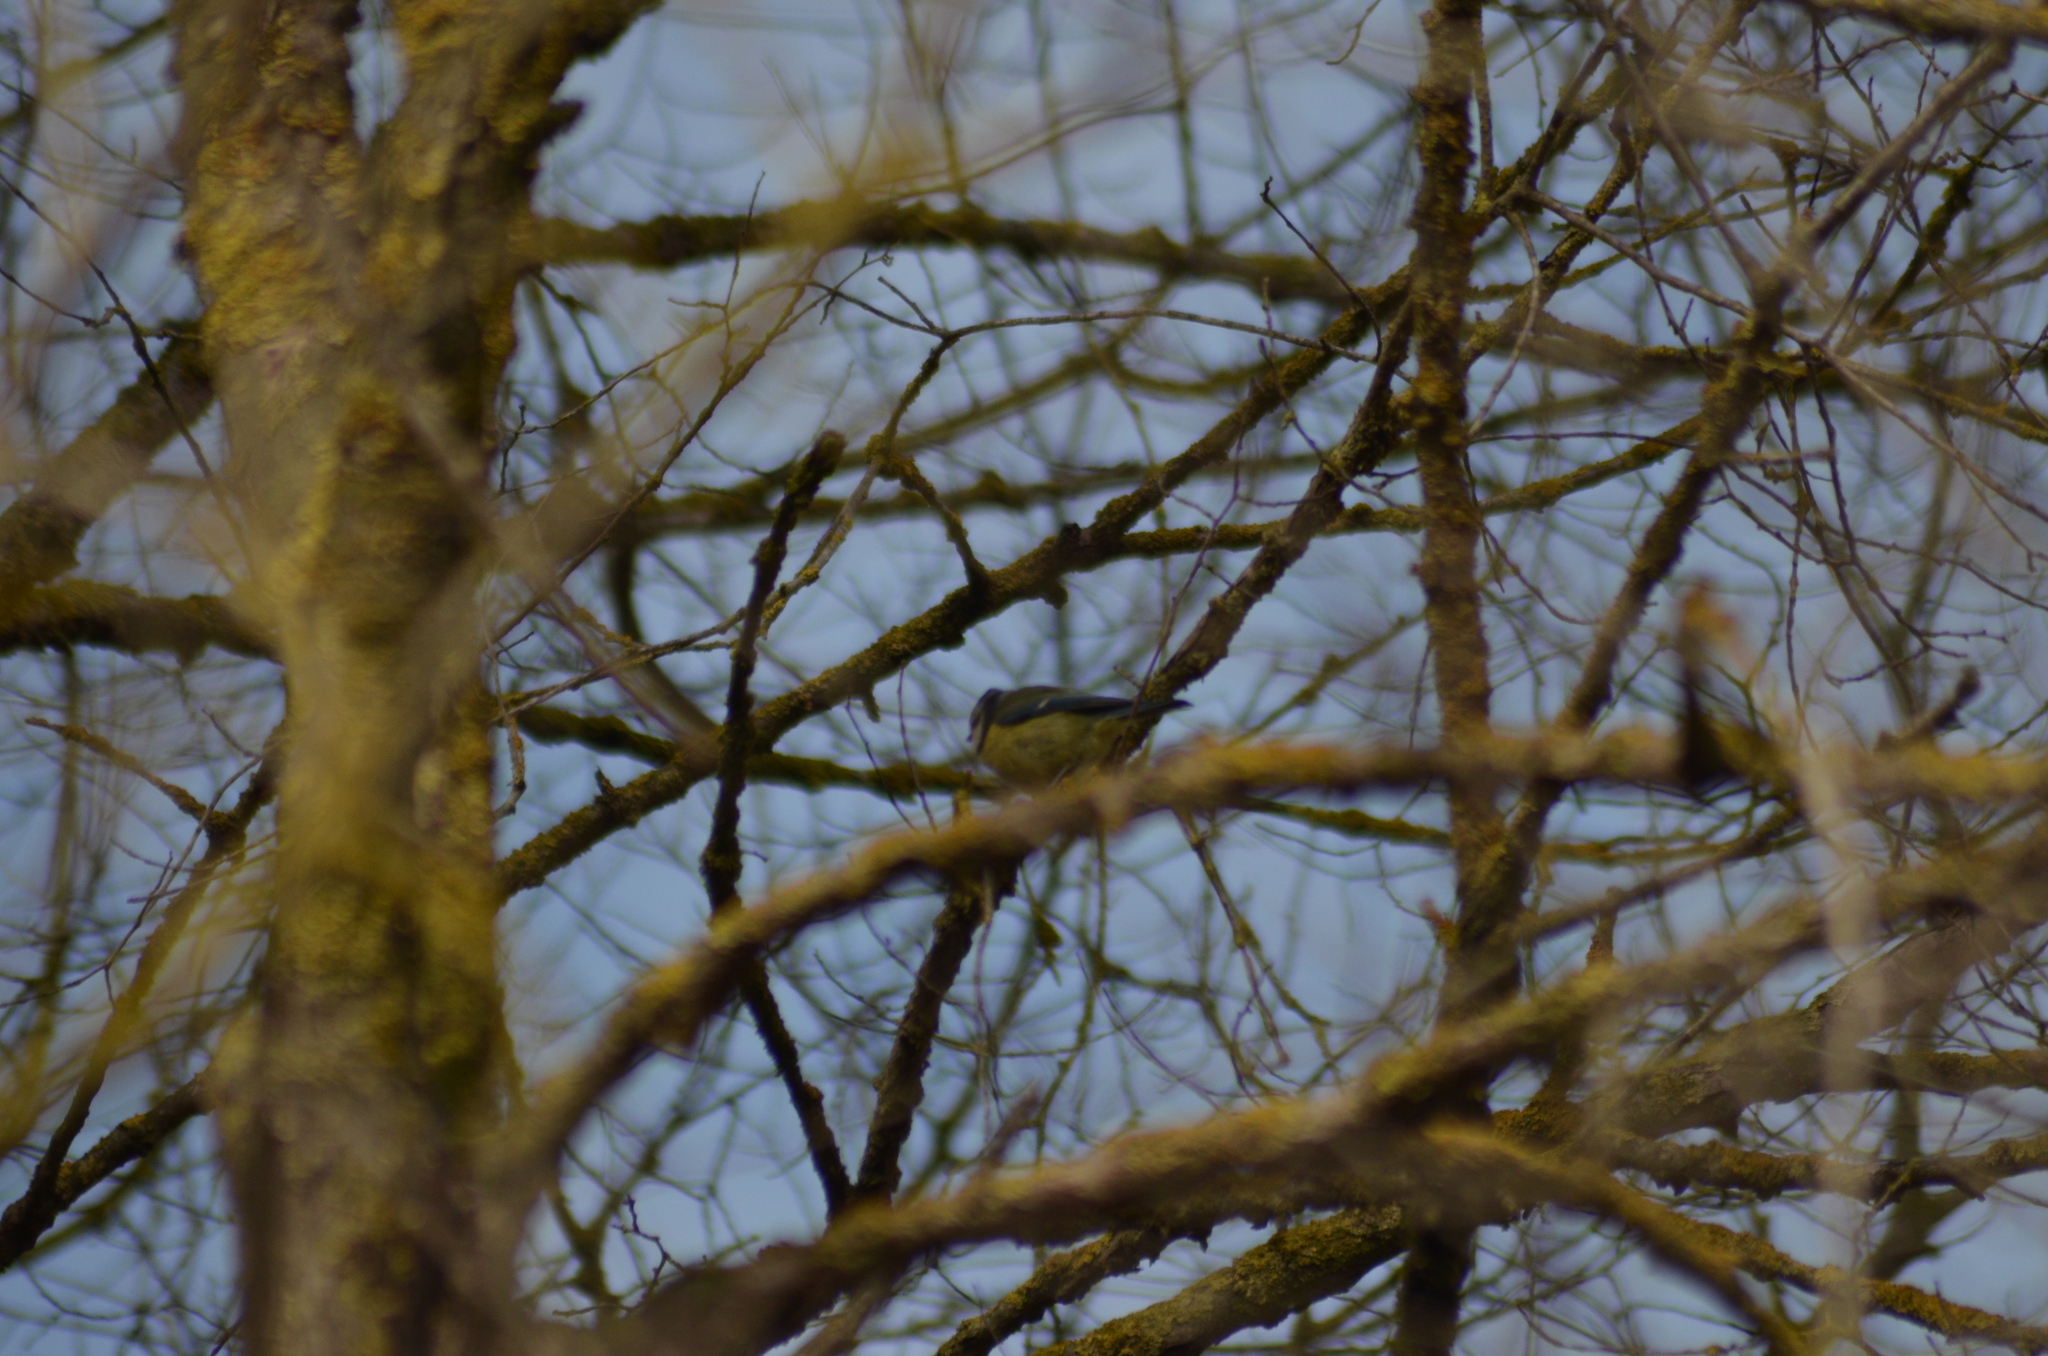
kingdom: Animalia
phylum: Chordata
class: Aves
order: Passeriformes
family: Paridae
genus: Cyanistes
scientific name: Cyanistes caeruleus
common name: Eurasian blue tit
